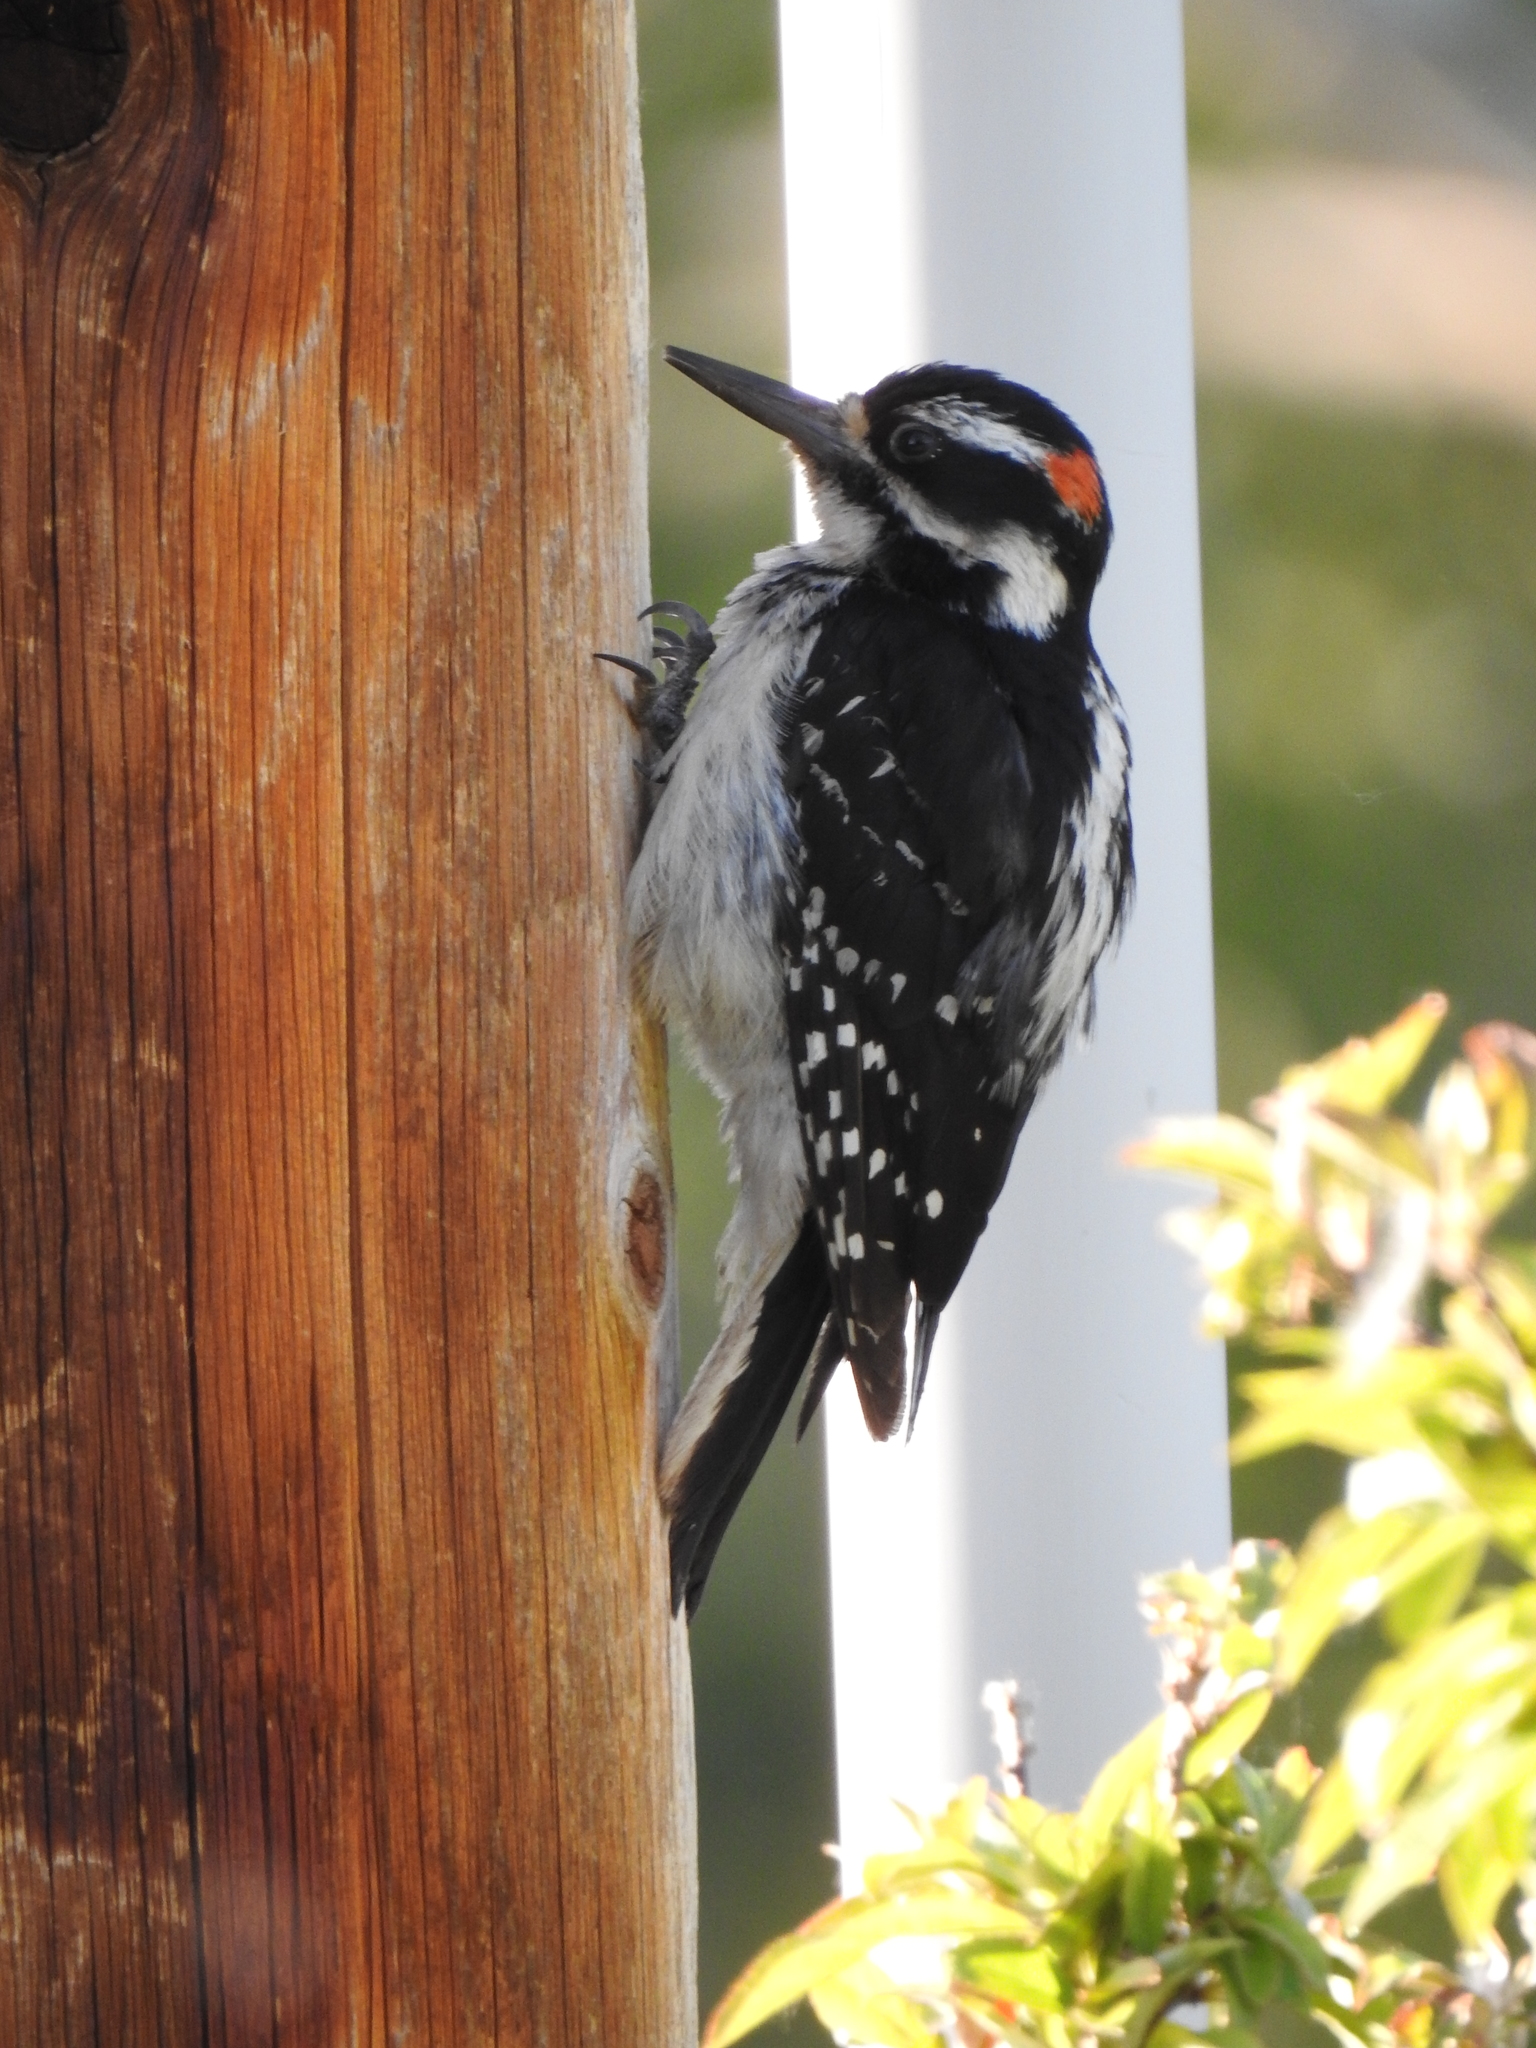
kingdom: Animalia
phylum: Chordata
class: Aves
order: Piciformes
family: Picidae
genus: Leuconotopicus
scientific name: Leuconotopicus villosus
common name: Hairy woodpecker
